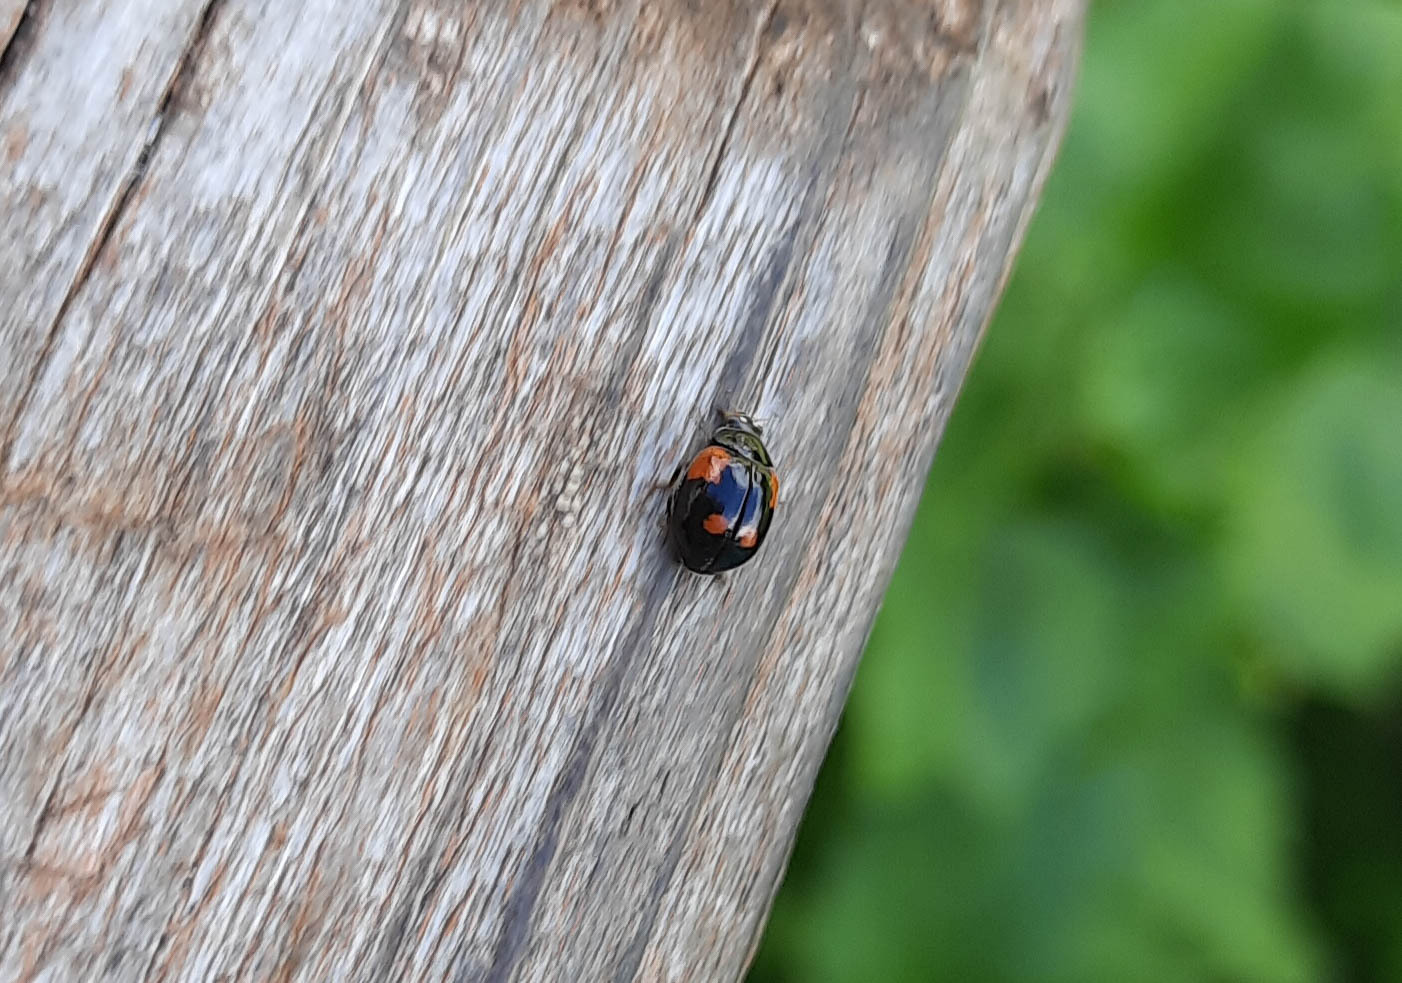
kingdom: Animalia
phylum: Arthropoda
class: Insecta
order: Coleoptera
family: Coccinellidae
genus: Adalia
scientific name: Adalia bipunctata
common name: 2-spot ladybird
